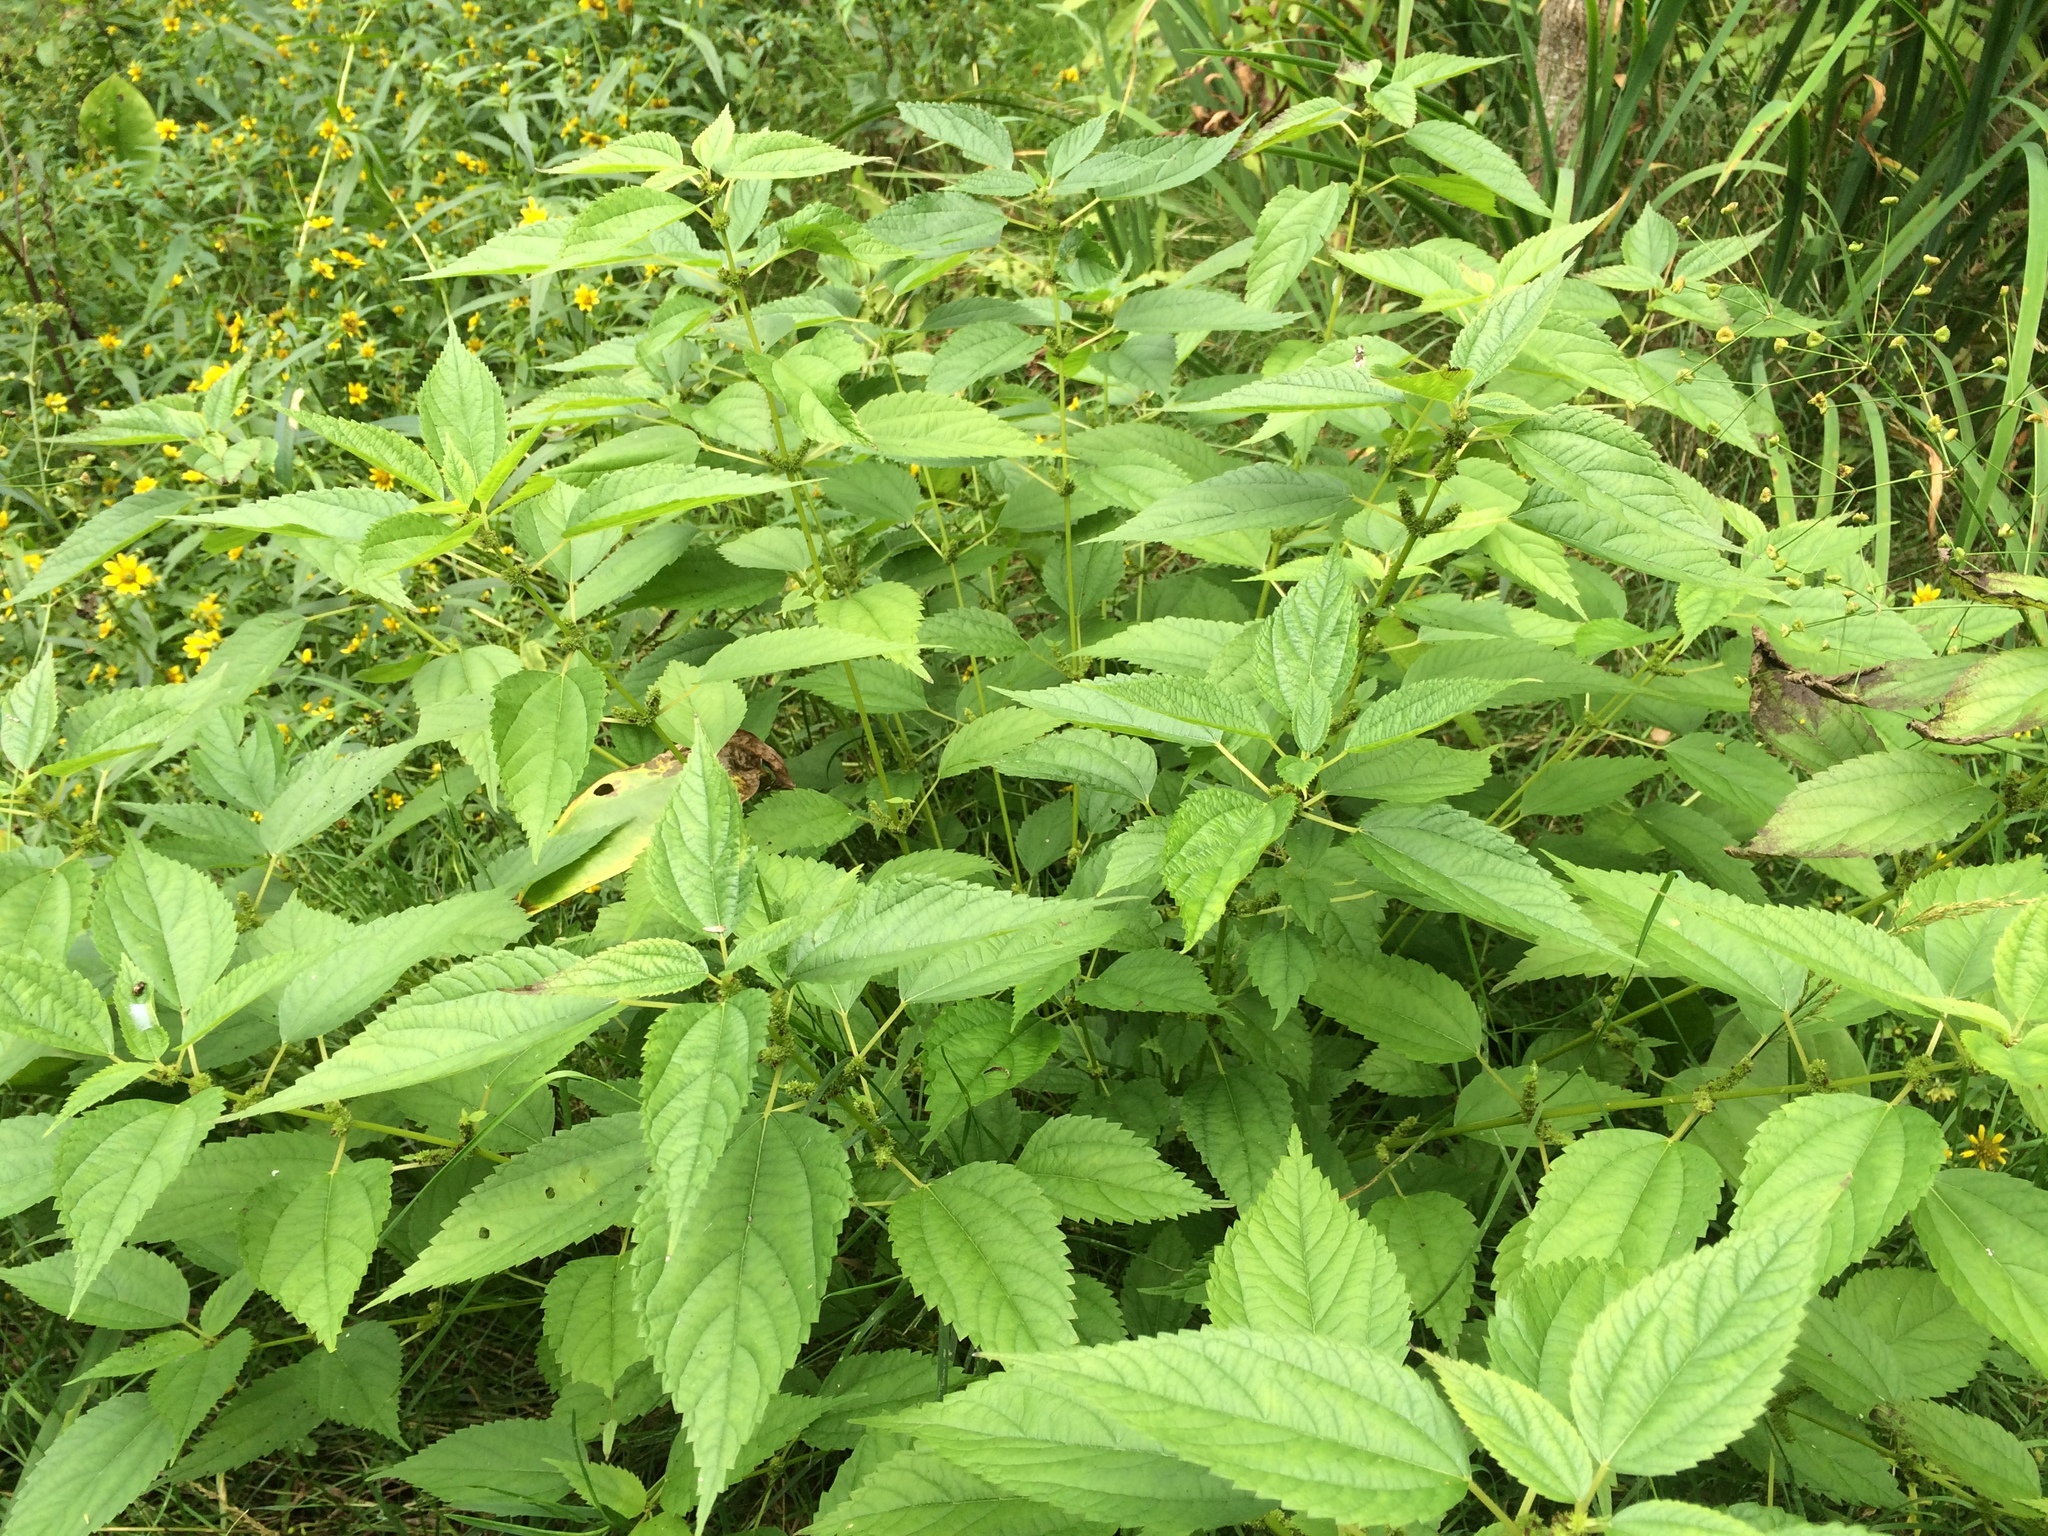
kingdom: Plantae
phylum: Tracheophyta
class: Magnoliopsida
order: Rosales
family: Urticaceae
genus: Boehmeria
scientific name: Boehmeria cylindrica
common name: Bog-hemp
